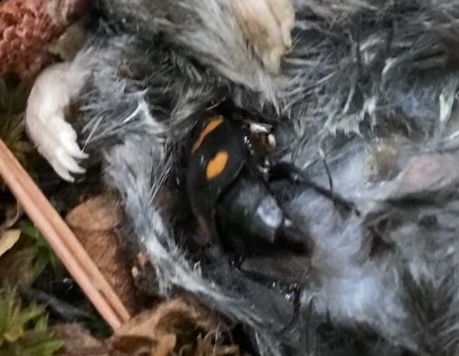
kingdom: Animalia
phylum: Arthropoda
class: Insecta
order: Coleoptera
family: Staphylinidae
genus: Nicrophorus
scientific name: Nicrophorus orbicollis
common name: Roundneck sexton beetle
